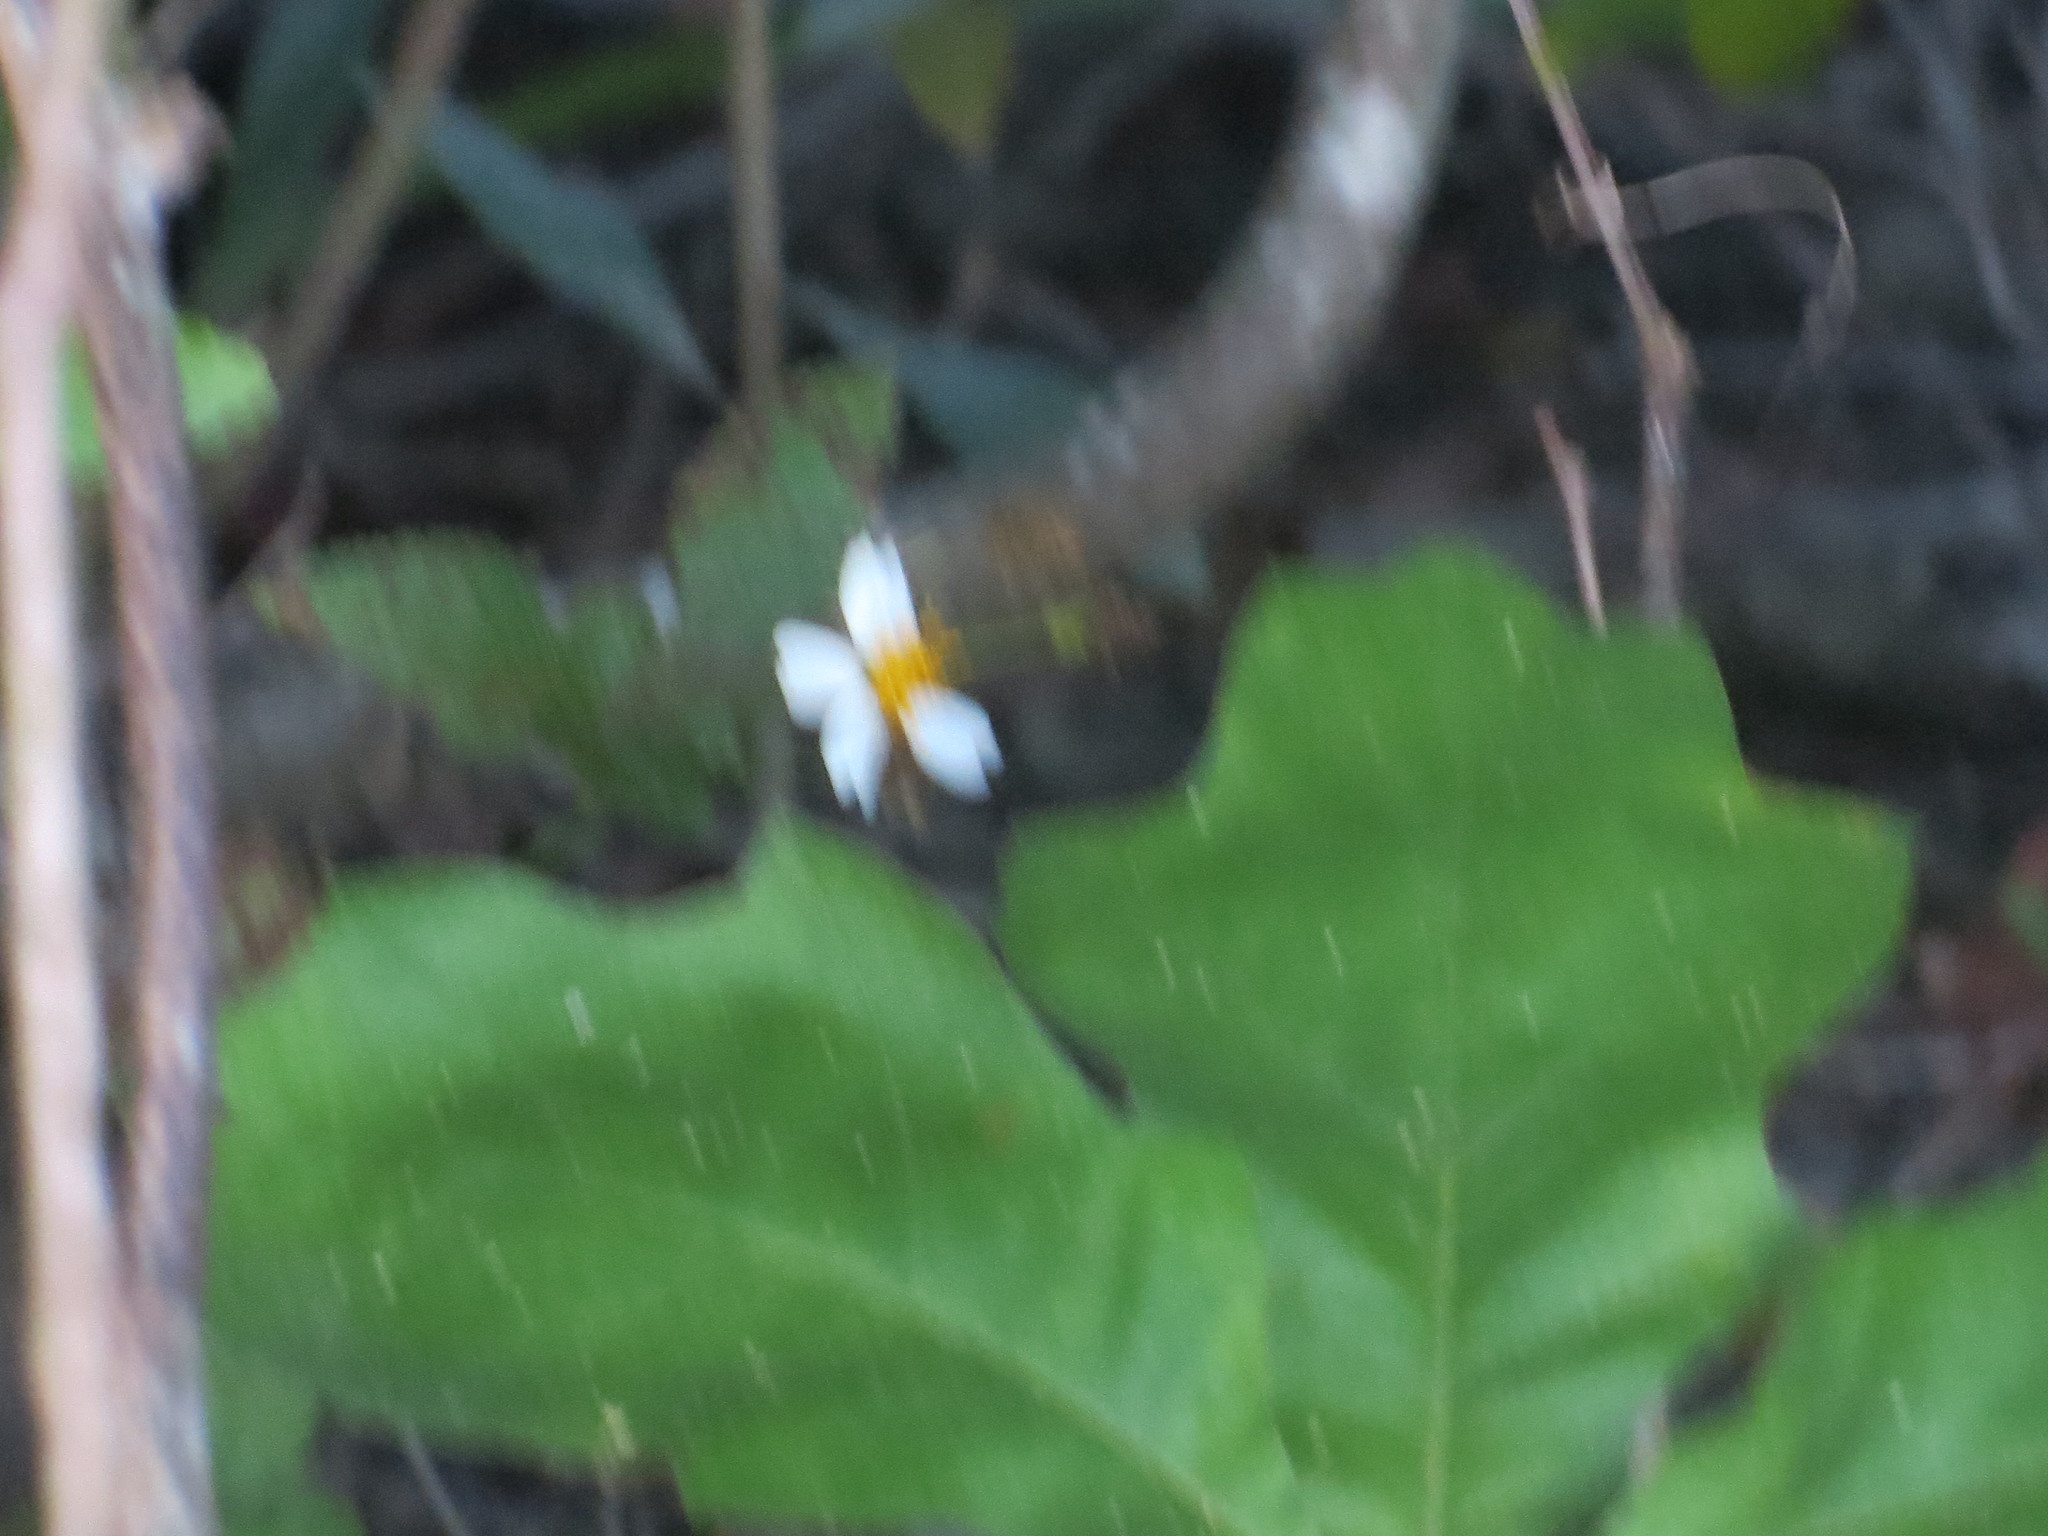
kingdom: Plantae
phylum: Tracheophyta
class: Magnoliopsida
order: Asterales
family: Asteraceae
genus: Bidens
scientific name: Bidens alba
